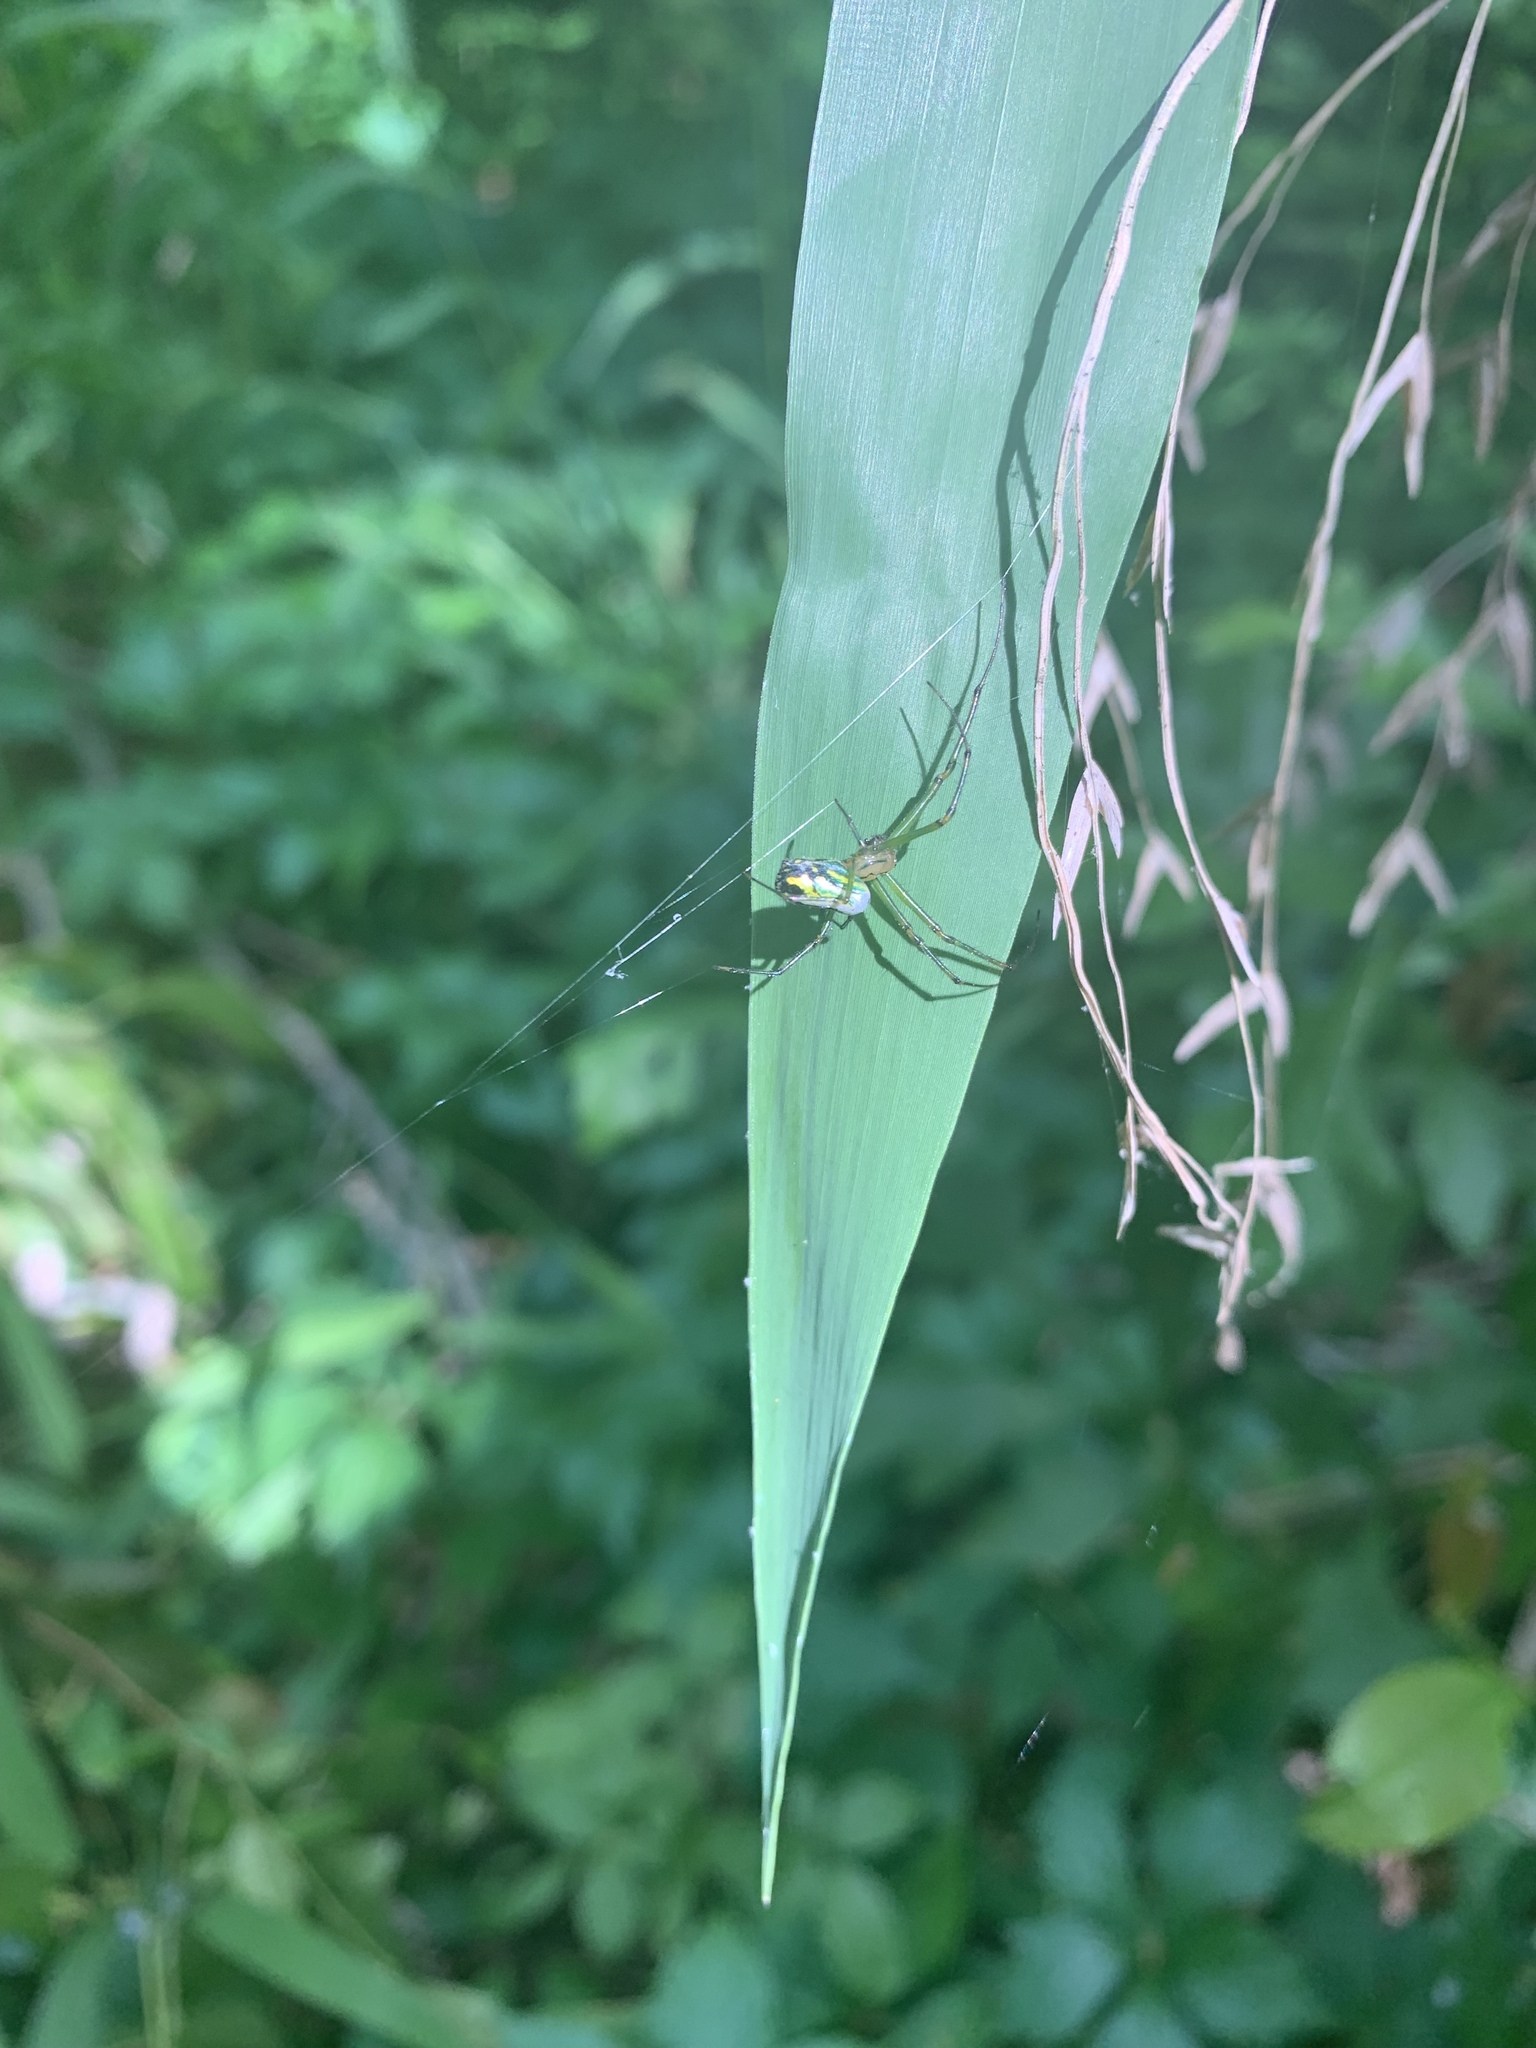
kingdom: Animalia
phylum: Arthropoda
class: Arachnida
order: Araneae
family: Tetragnathidae
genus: Leucauge
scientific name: Leucauge venusta
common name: Longjawed orb weavers
